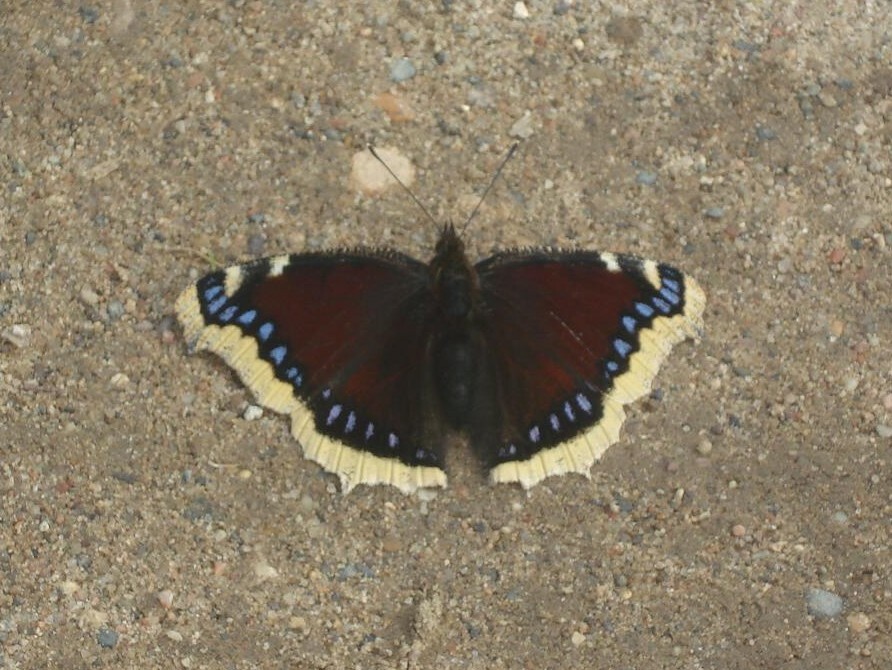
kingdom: Animalia
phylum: Arthropoda
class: Insecta
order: Lepidoptera
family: Nymphalidae
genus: Nymphalis
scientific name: Nymphalis antiopa
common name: Camberwell beauty
